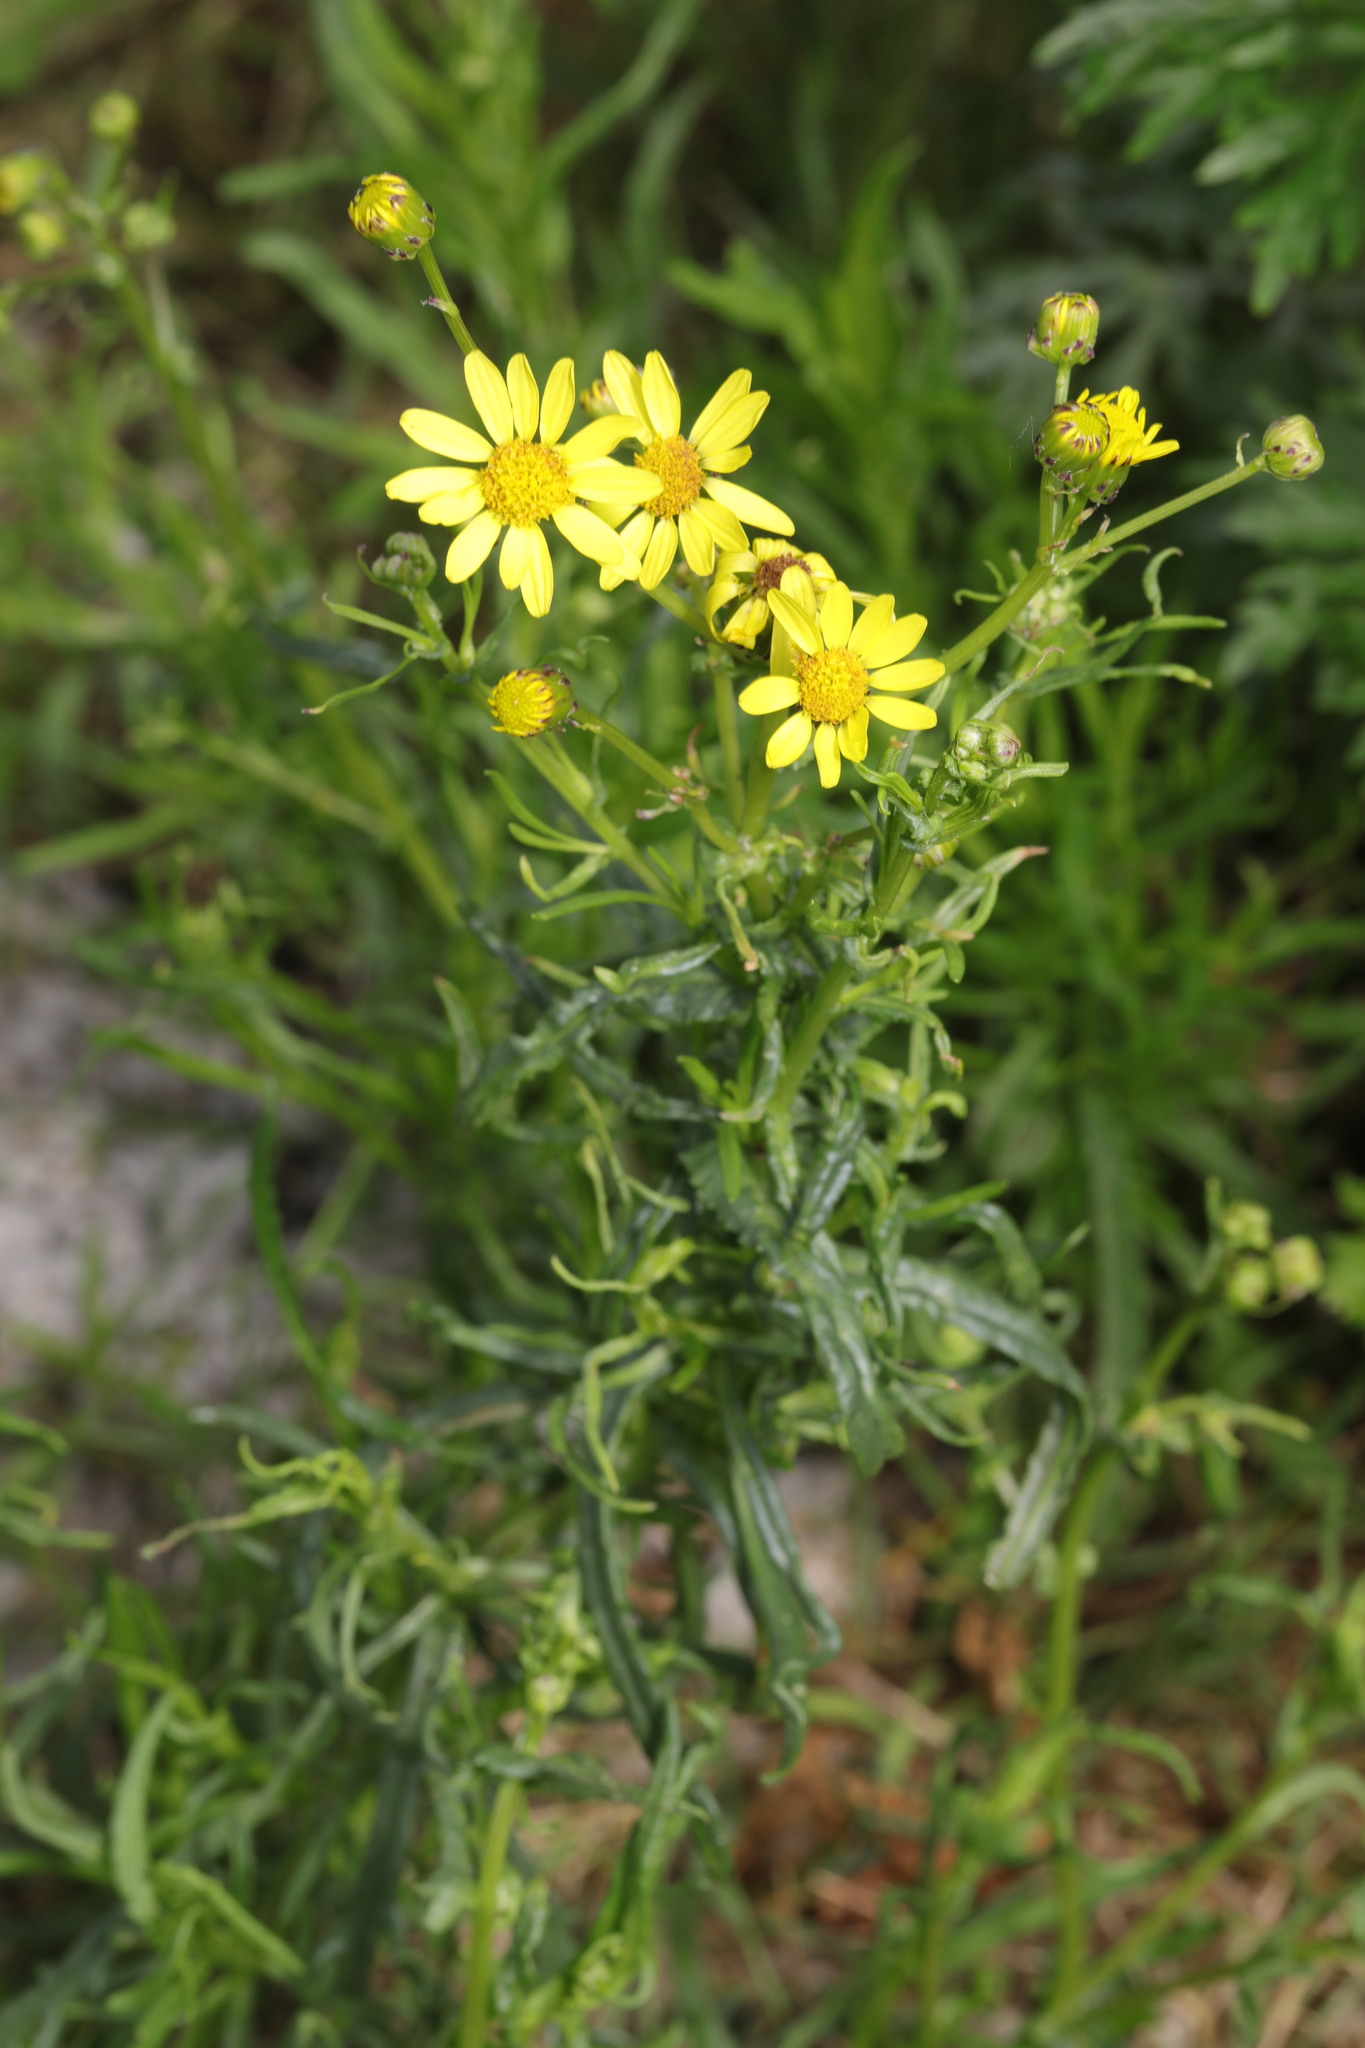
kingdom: Plantae
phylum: Tracheophyta
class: Magnoliopsida
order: Asterales
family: Asteraceae
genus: Senecio
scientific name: Senecio inaequidens
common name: Narrow-leaved ragwort
